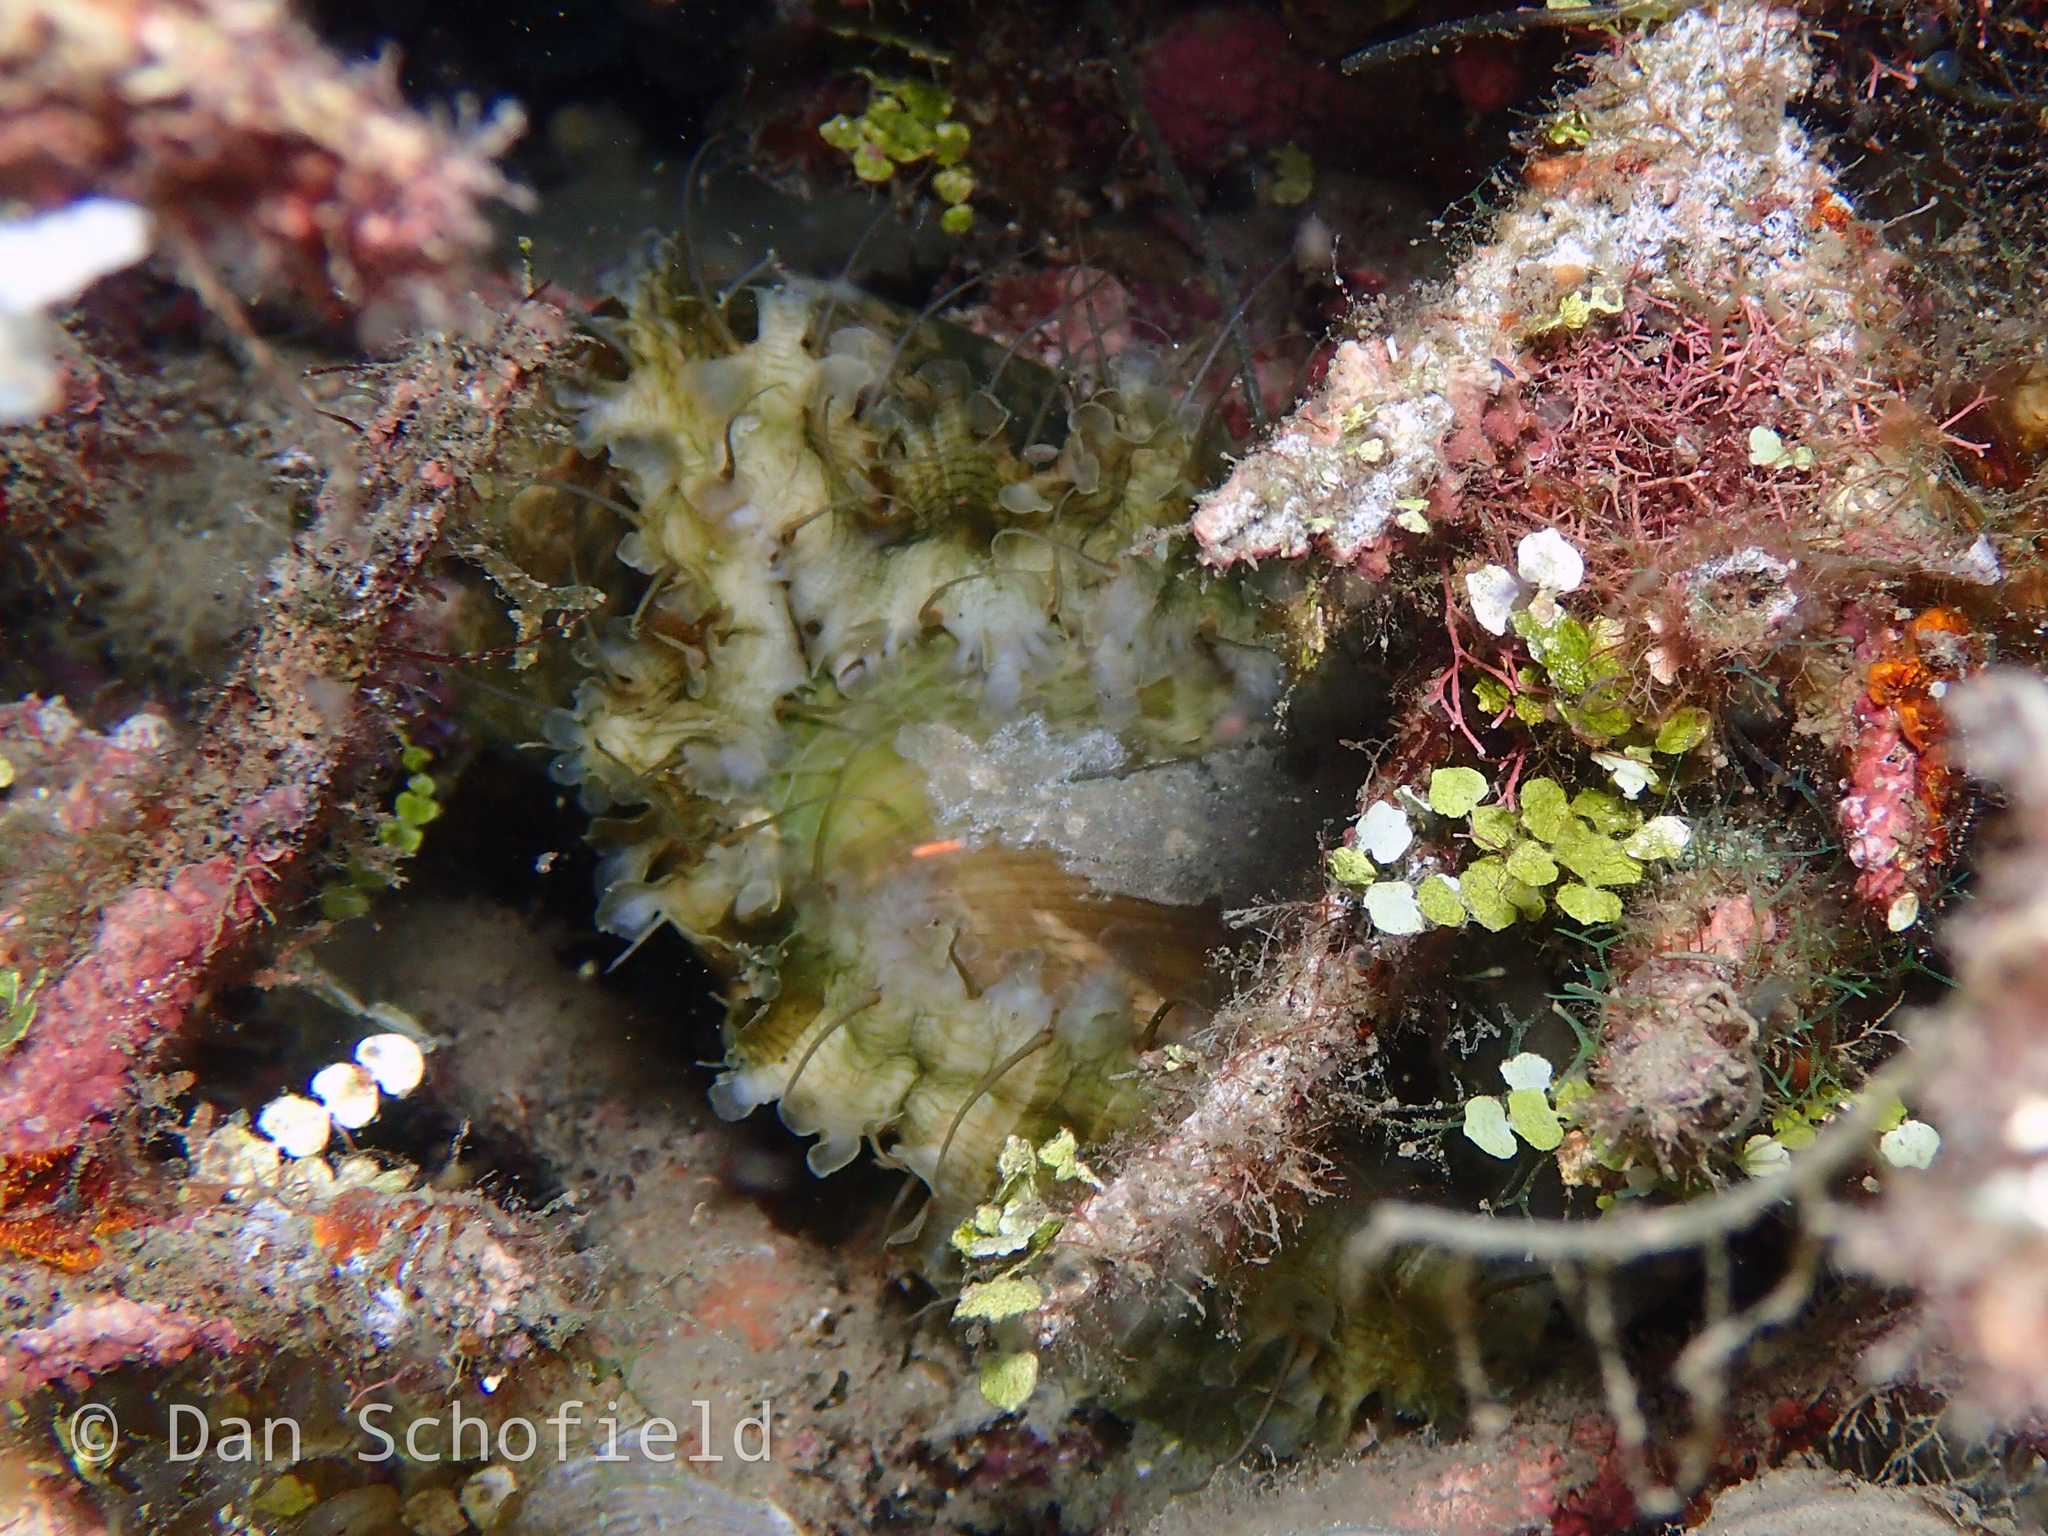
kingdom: Animalia
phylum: Mollusca
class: Gastropoda
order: Lepetellida
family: Haliotidae
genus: Haliotis
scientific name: Haliotis asinina
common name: Donkey's ear abalone
